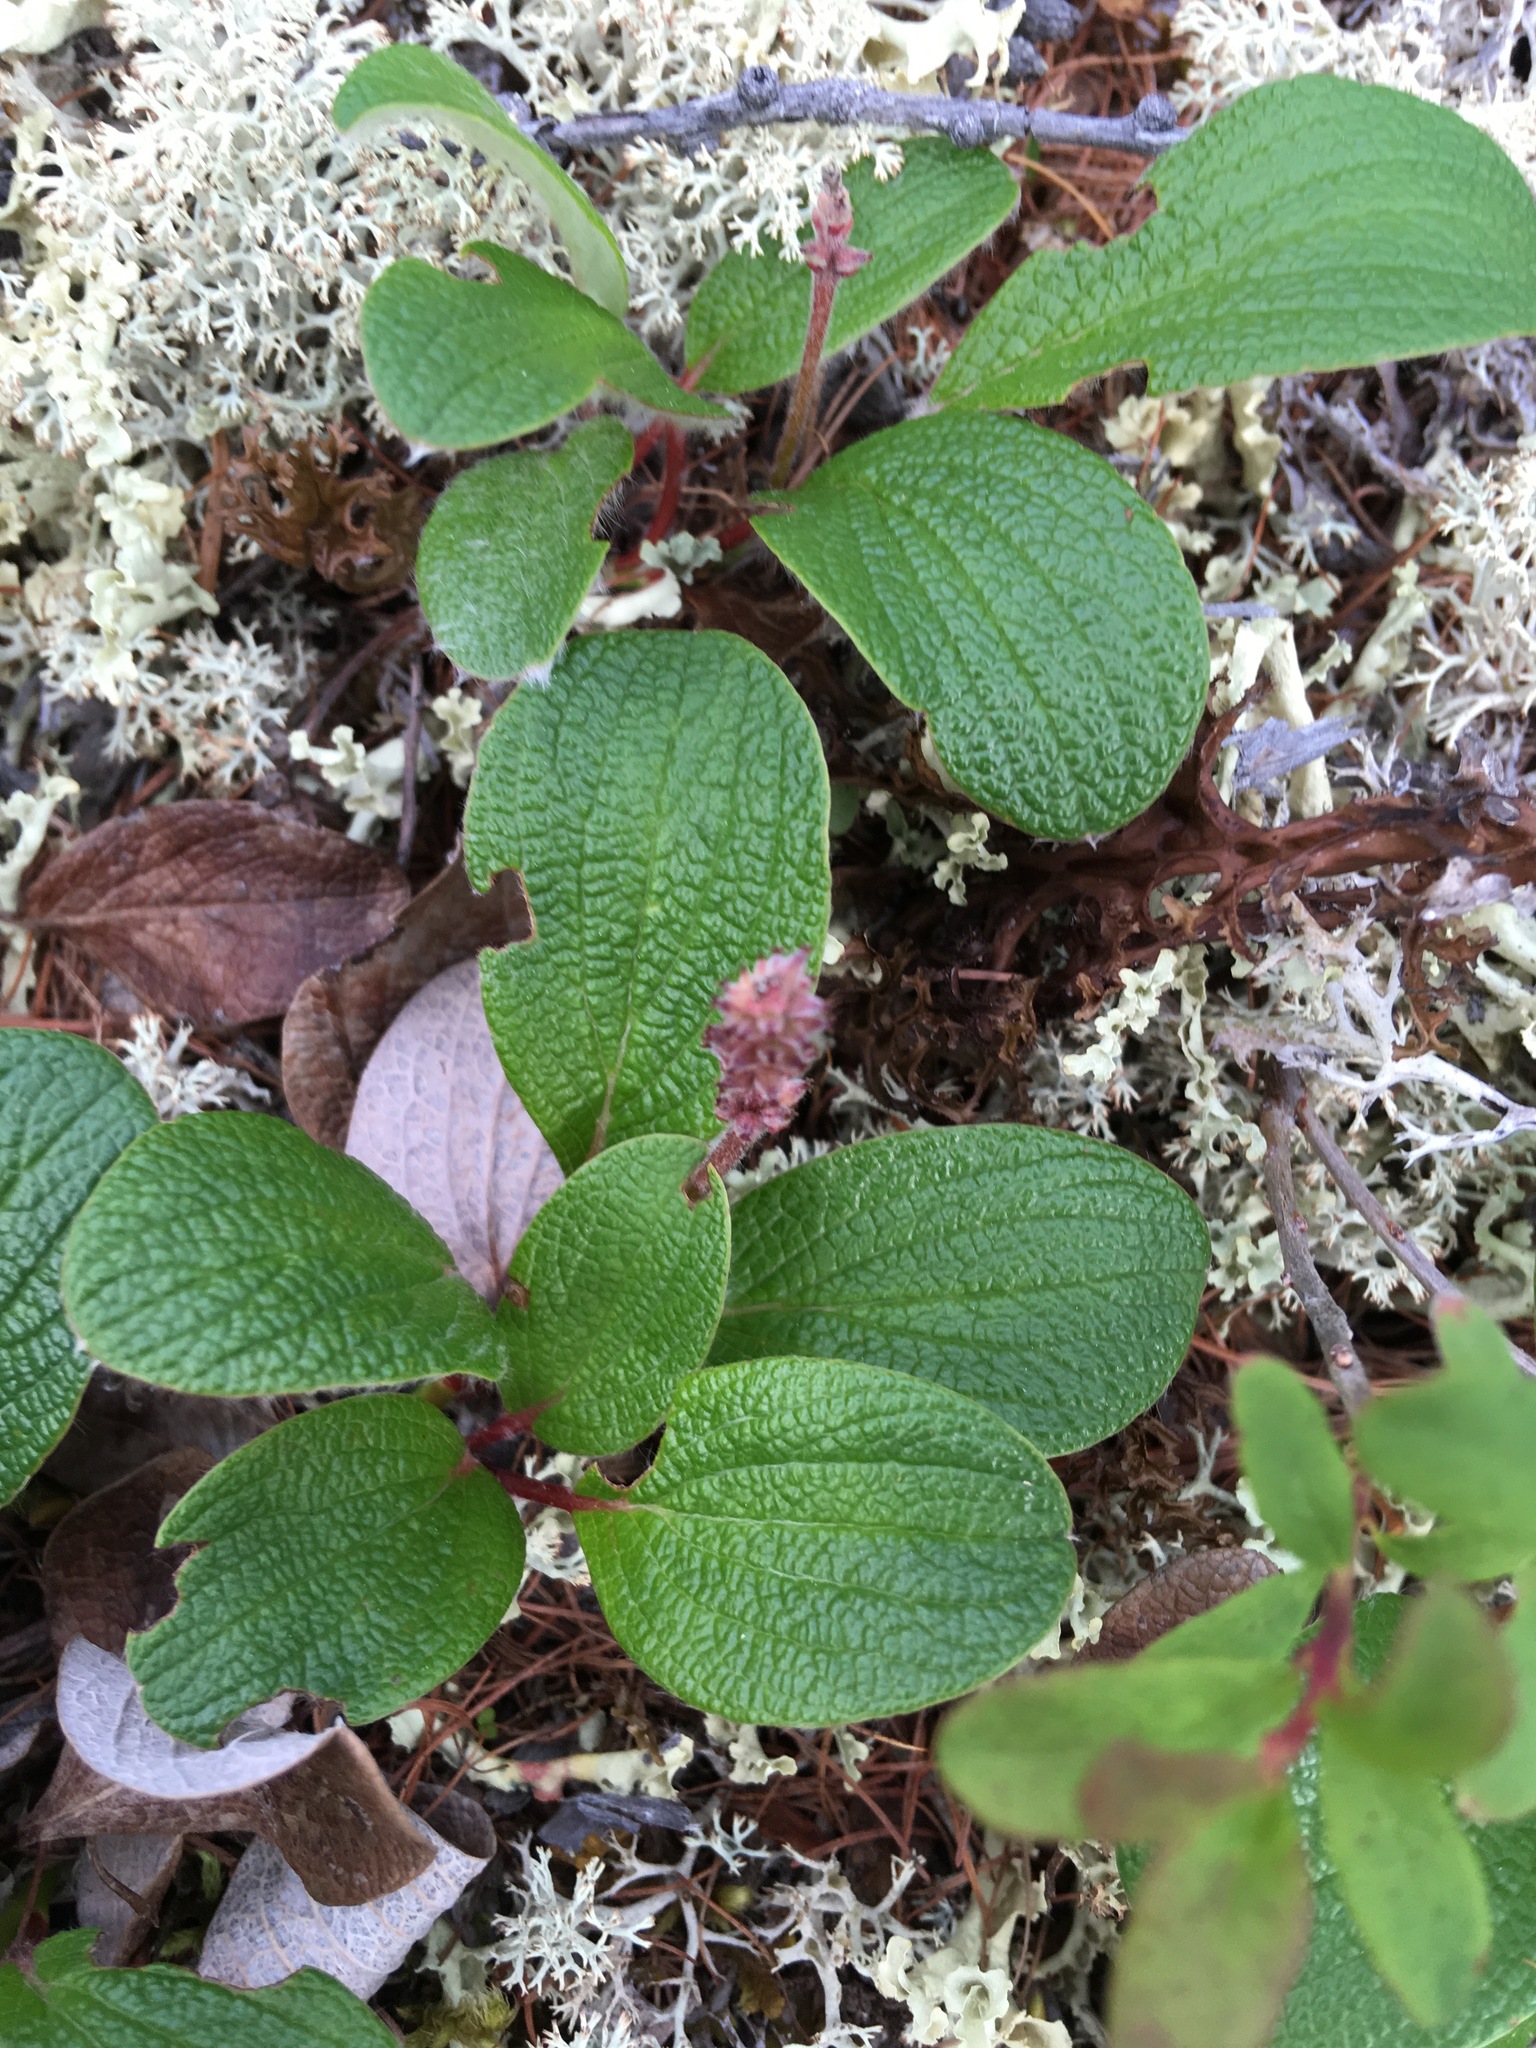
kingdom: Plantae
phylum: Tracheophyta
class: Magnoliopsida
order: Malpighiales
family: Salicaceae
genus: Salix
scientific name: Salix reticulata
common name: Net-leaved willow
